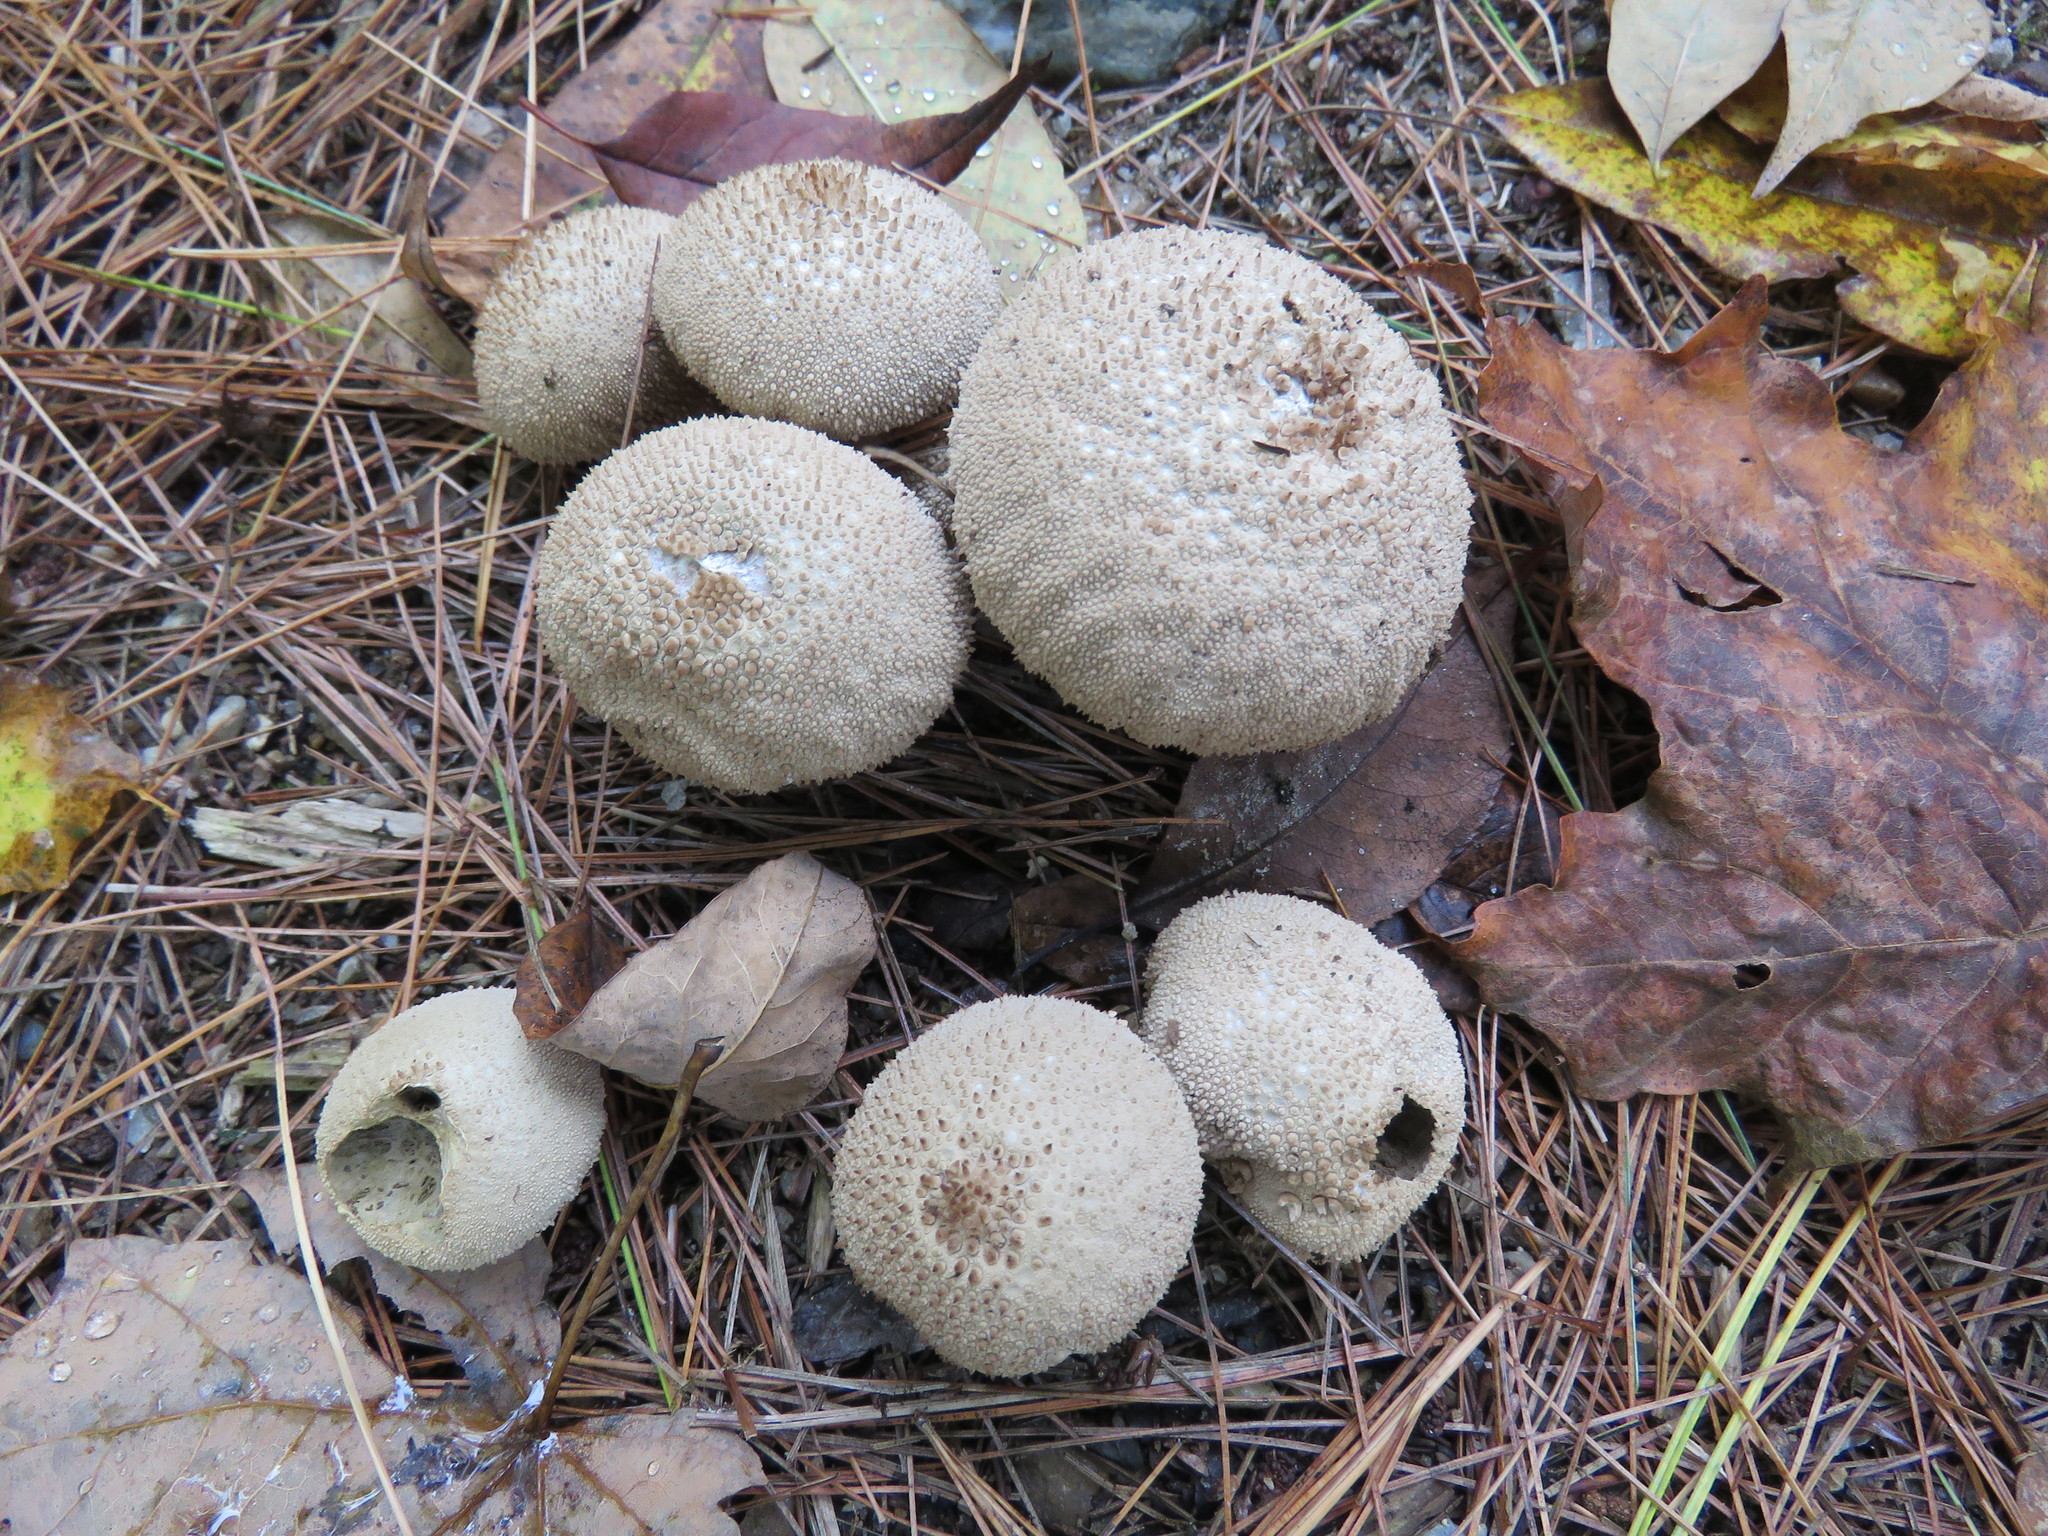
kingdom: Fungi
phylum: Basidiomycota
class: Agaricomycetes
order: Agaricales
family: Lycoperdaceae
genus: Lycoperdon
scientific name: Lycoperdon perlatum
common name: Common puffball
